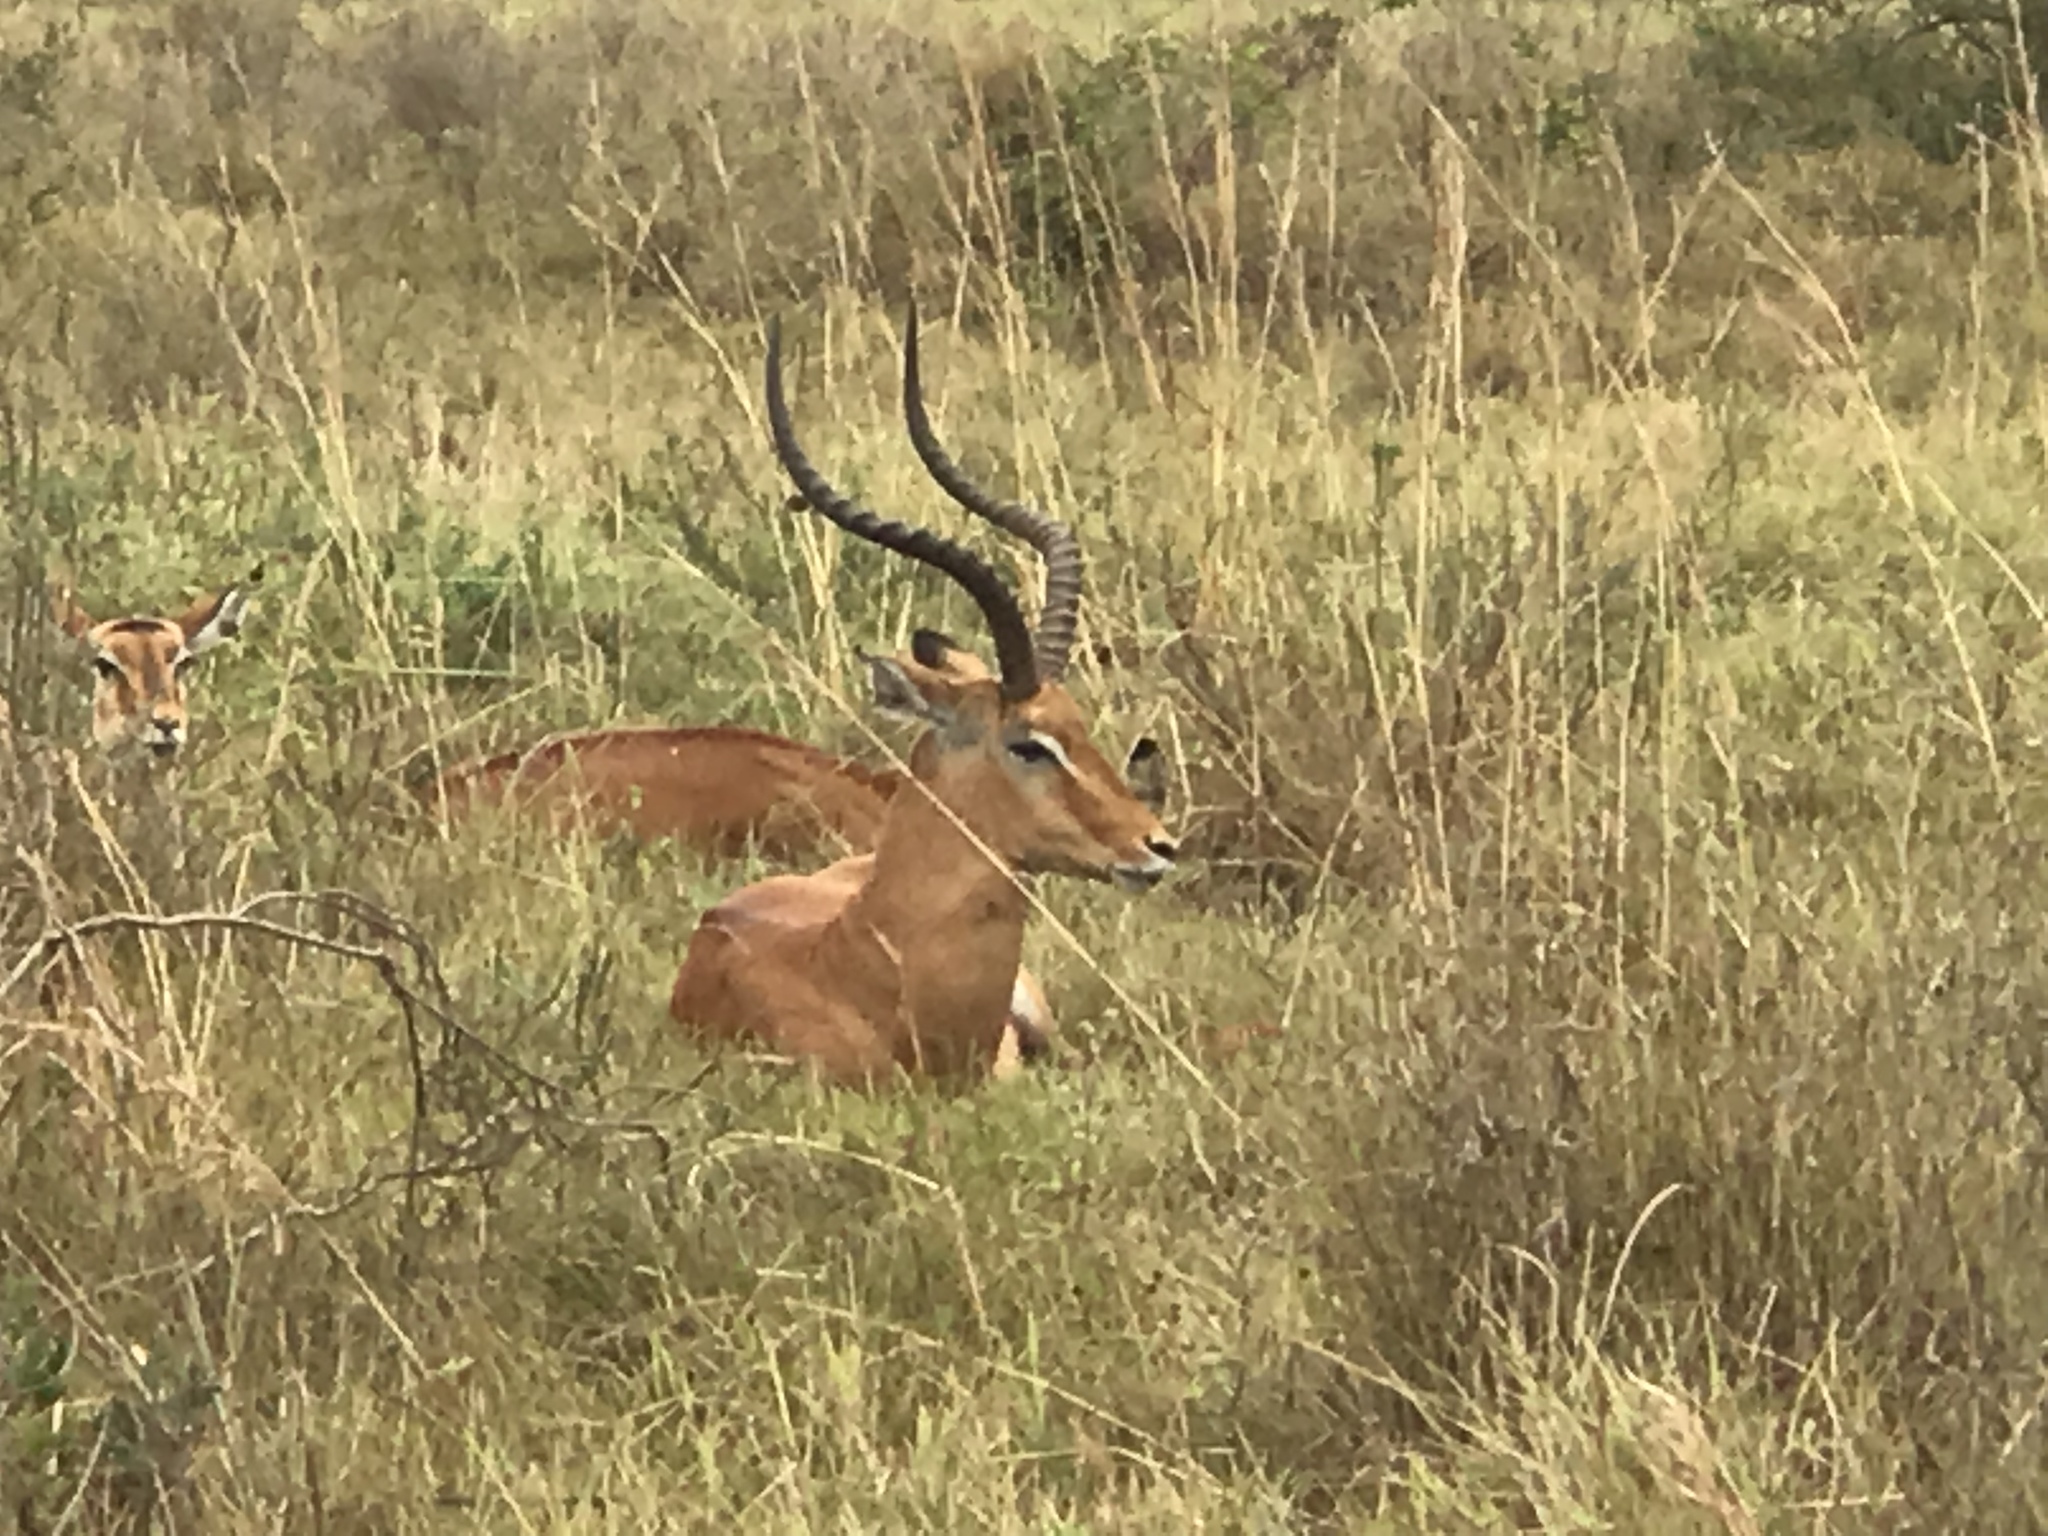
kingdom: Animalia
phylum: Chordata
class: Mammalia
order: Artiodactyla
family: Bovidae
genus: Aepyceros
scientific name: Aepyceros melampus
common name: Impala
